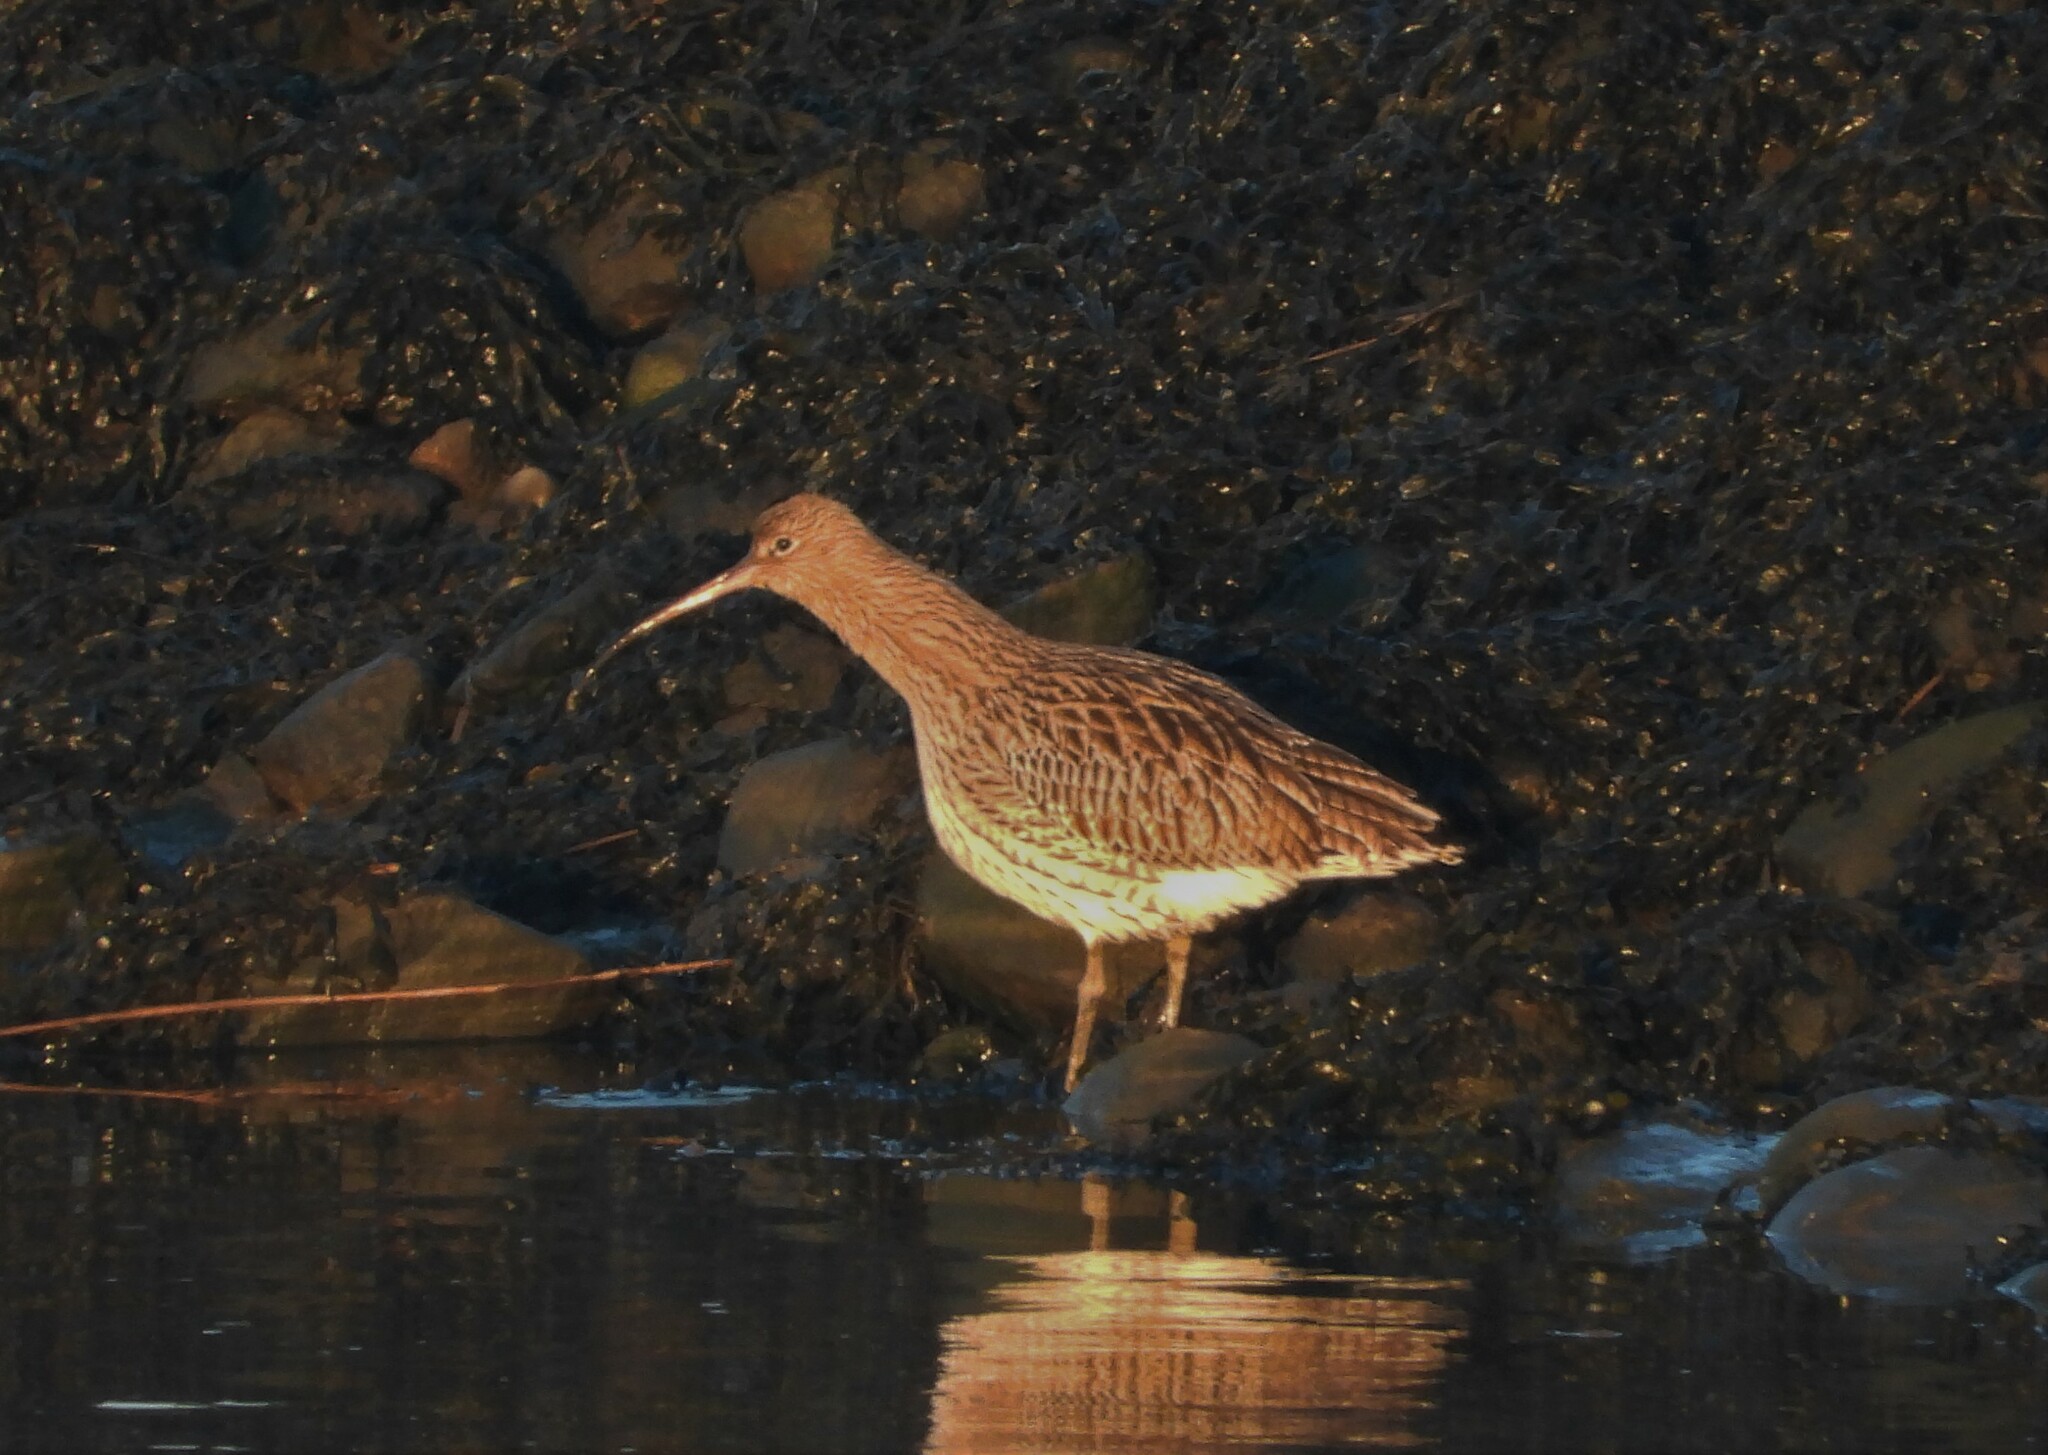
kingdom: Animalia
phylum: Chordata
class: Aves
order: Charadriiformes
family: Scolopacidae
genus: Numenius
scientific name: Numenius arquata
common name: Eurasian curlew
